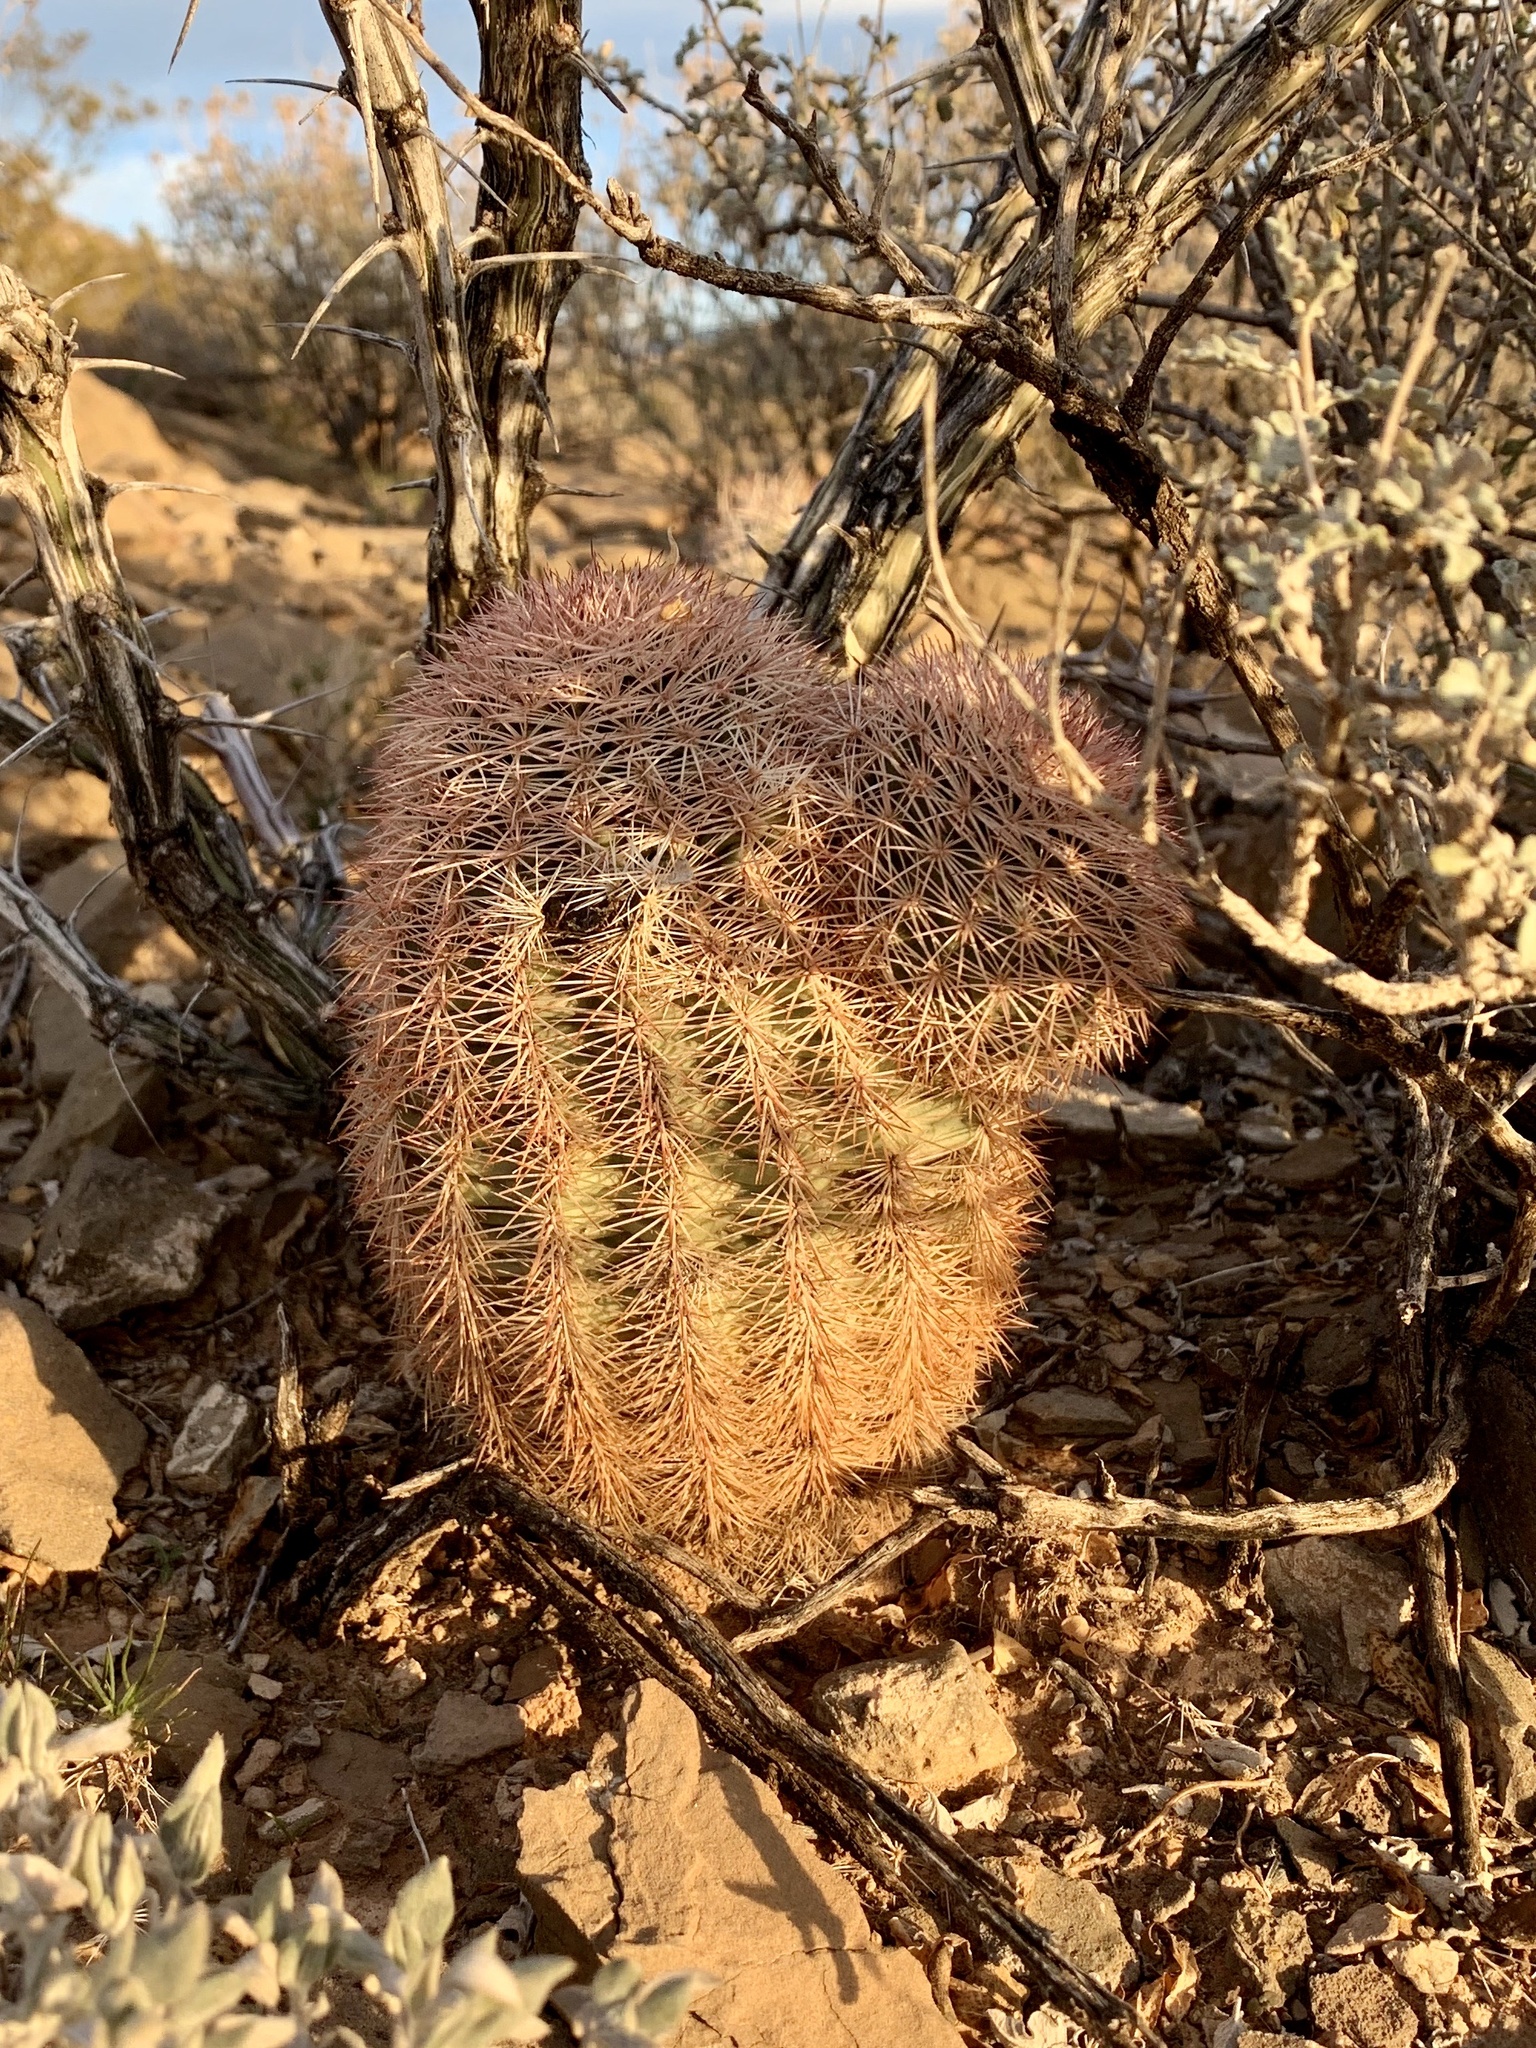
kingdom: Plantae
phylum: Tracheophyta
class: Magnoliopsida
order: Caryophyllales
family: Cactaceae
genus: Echinocereus
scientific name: Echinocereus dasyacanthus
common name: Spiny hedgehog cactus
